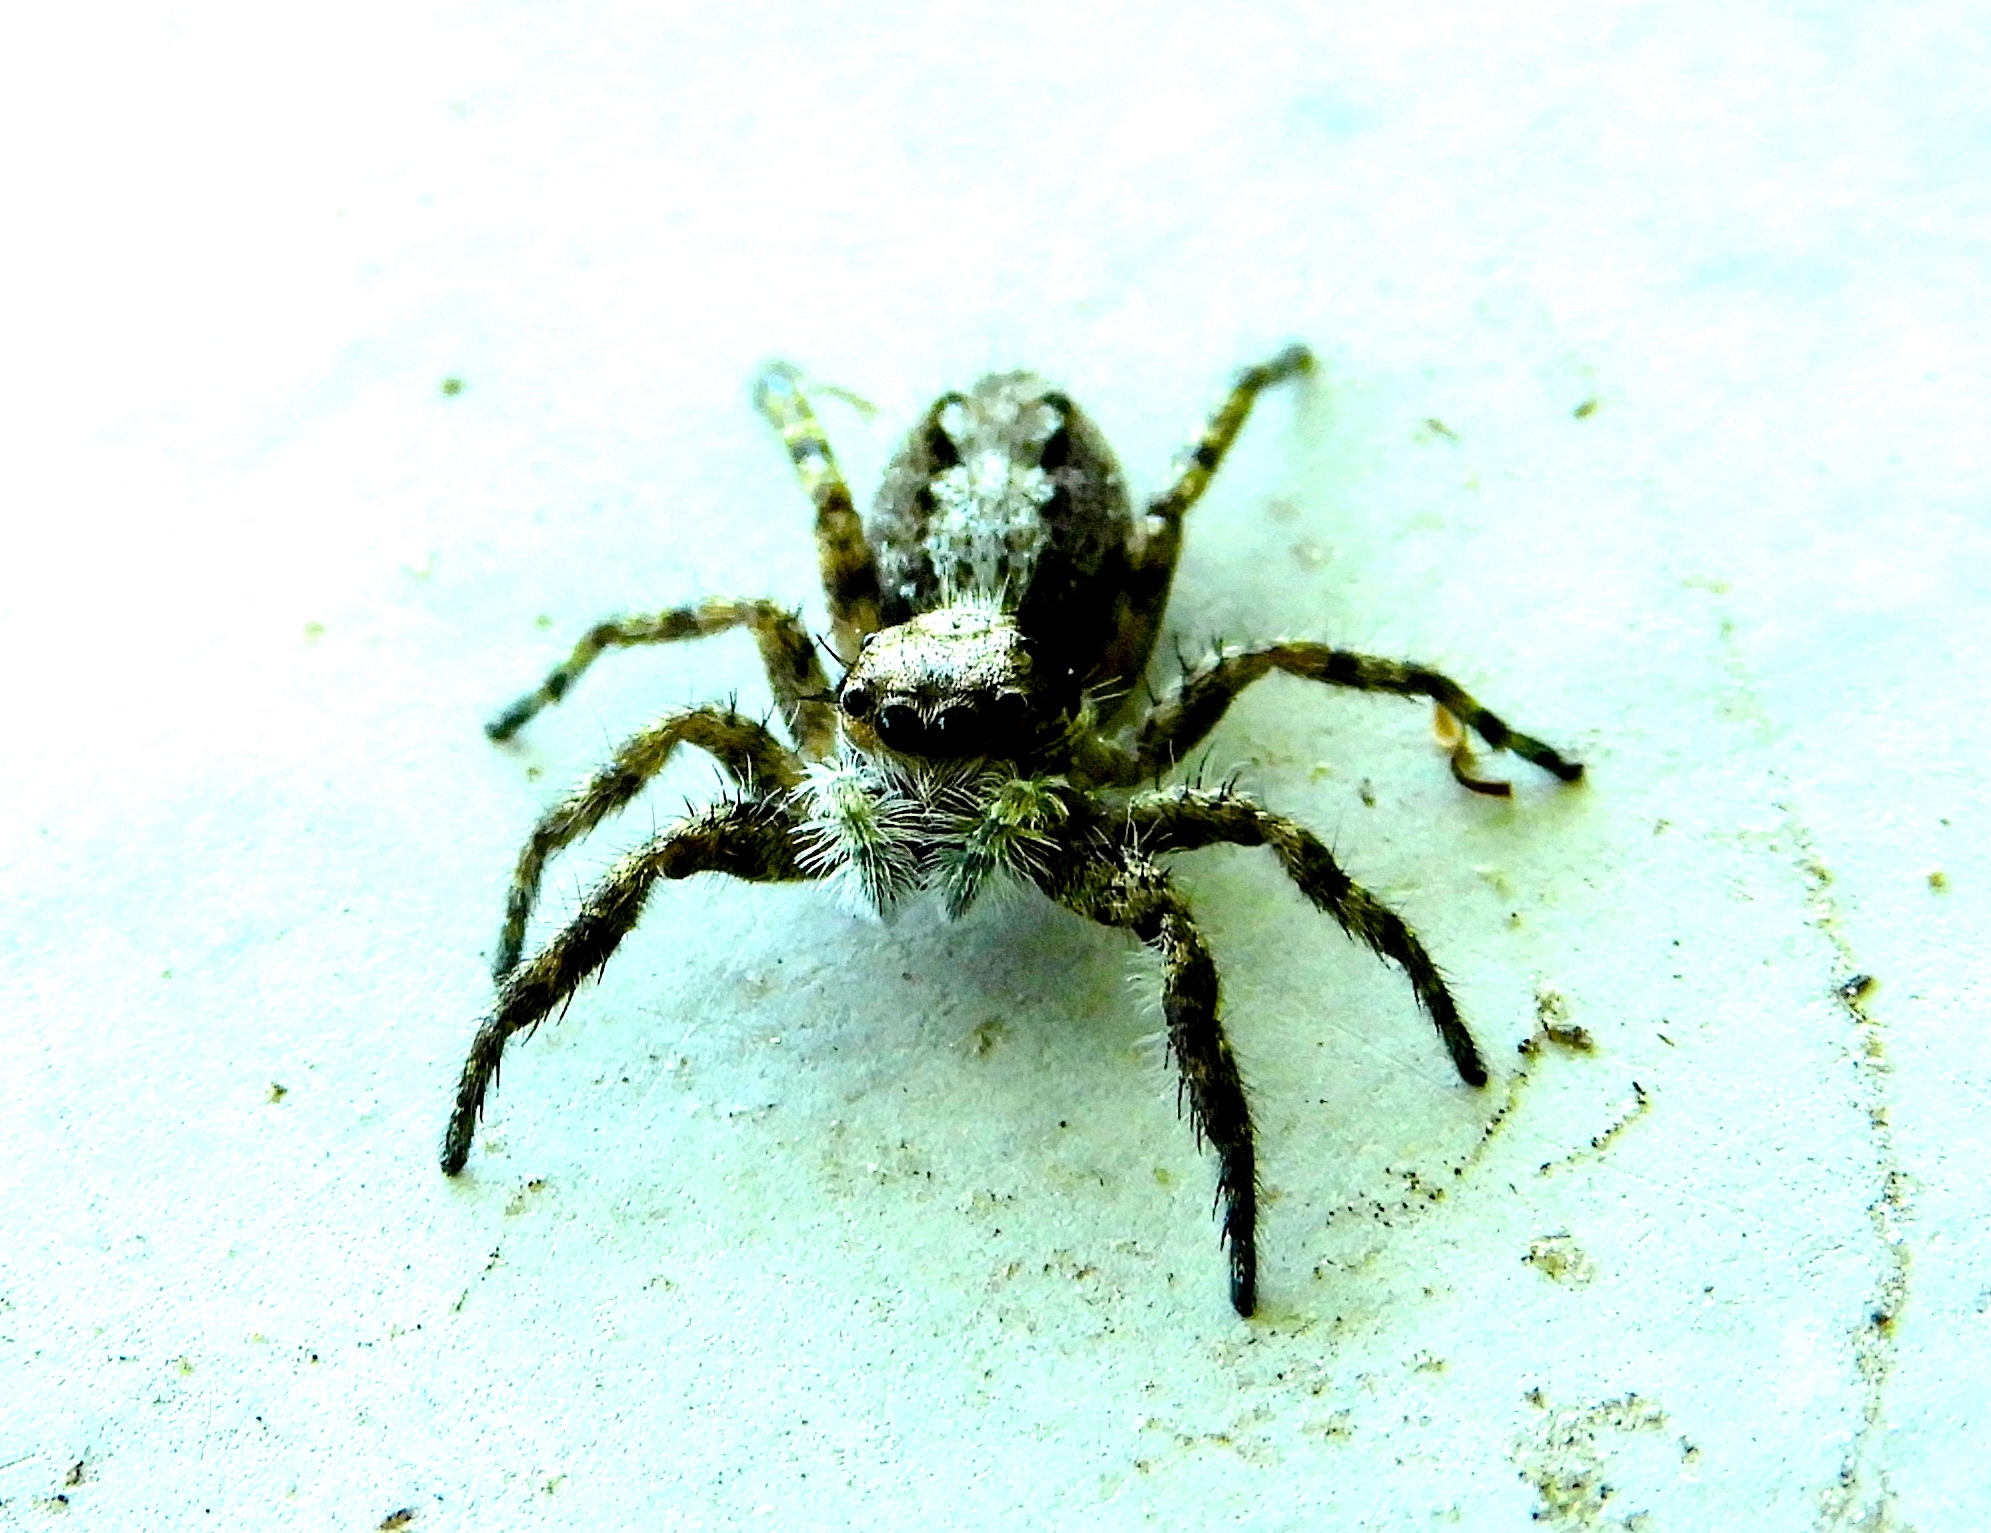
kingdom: Animalia
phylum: Arthropoda
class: Arachnida
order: Araneae
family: Salticidae
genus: Balmaceda
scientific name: Balmaceda
